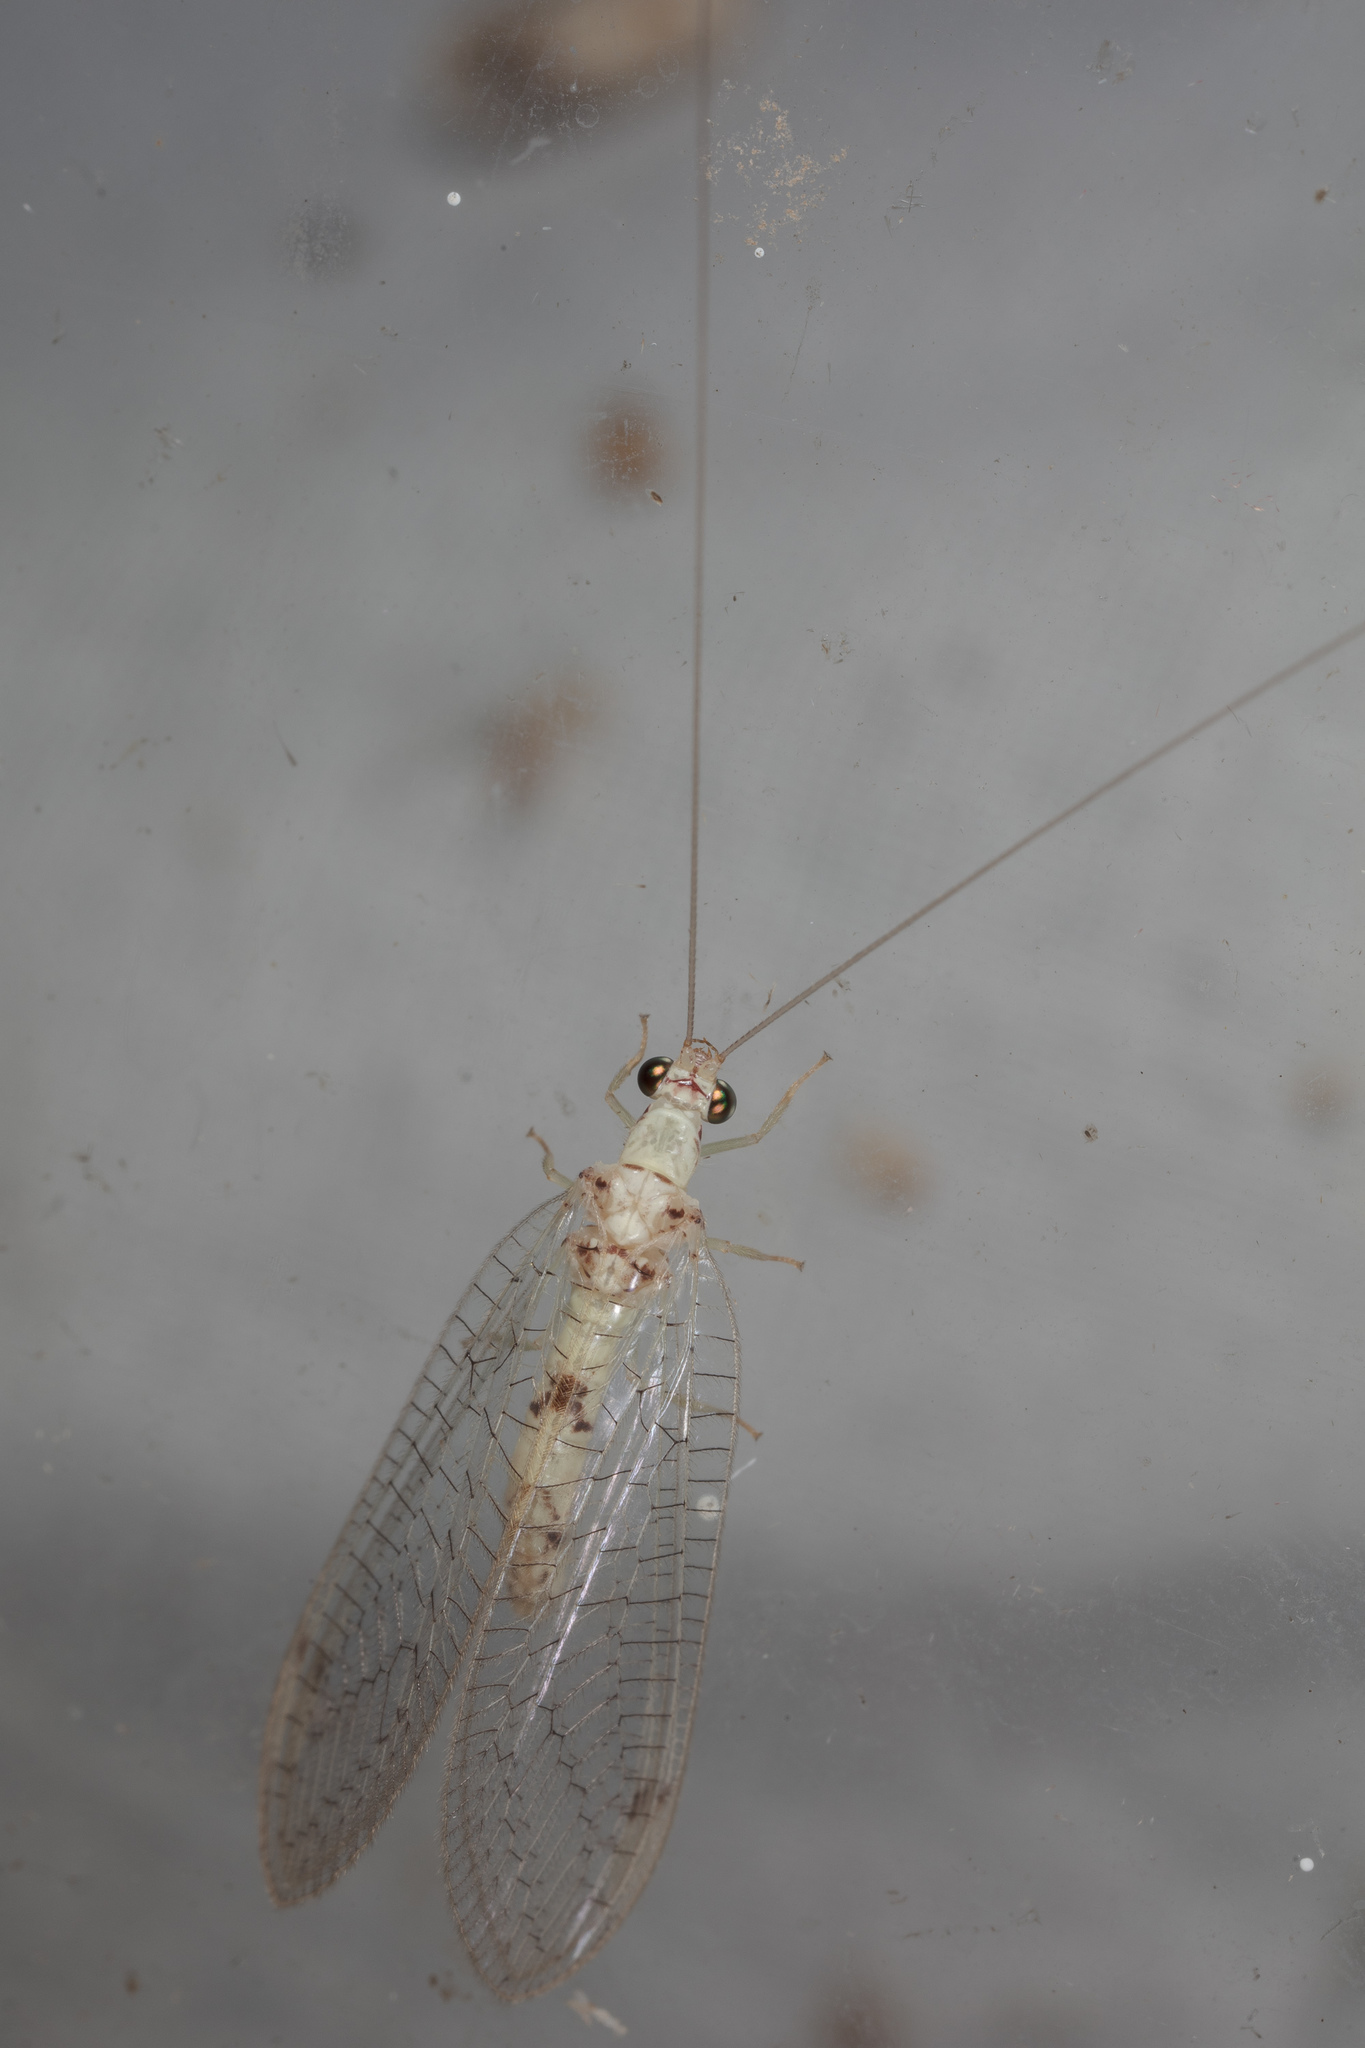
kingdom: Animalia
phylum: Arthropoda
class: Insecta
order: Neuroptera
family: Chrysopidae
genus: Leucochrysa
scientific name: Leucochrysa americana
